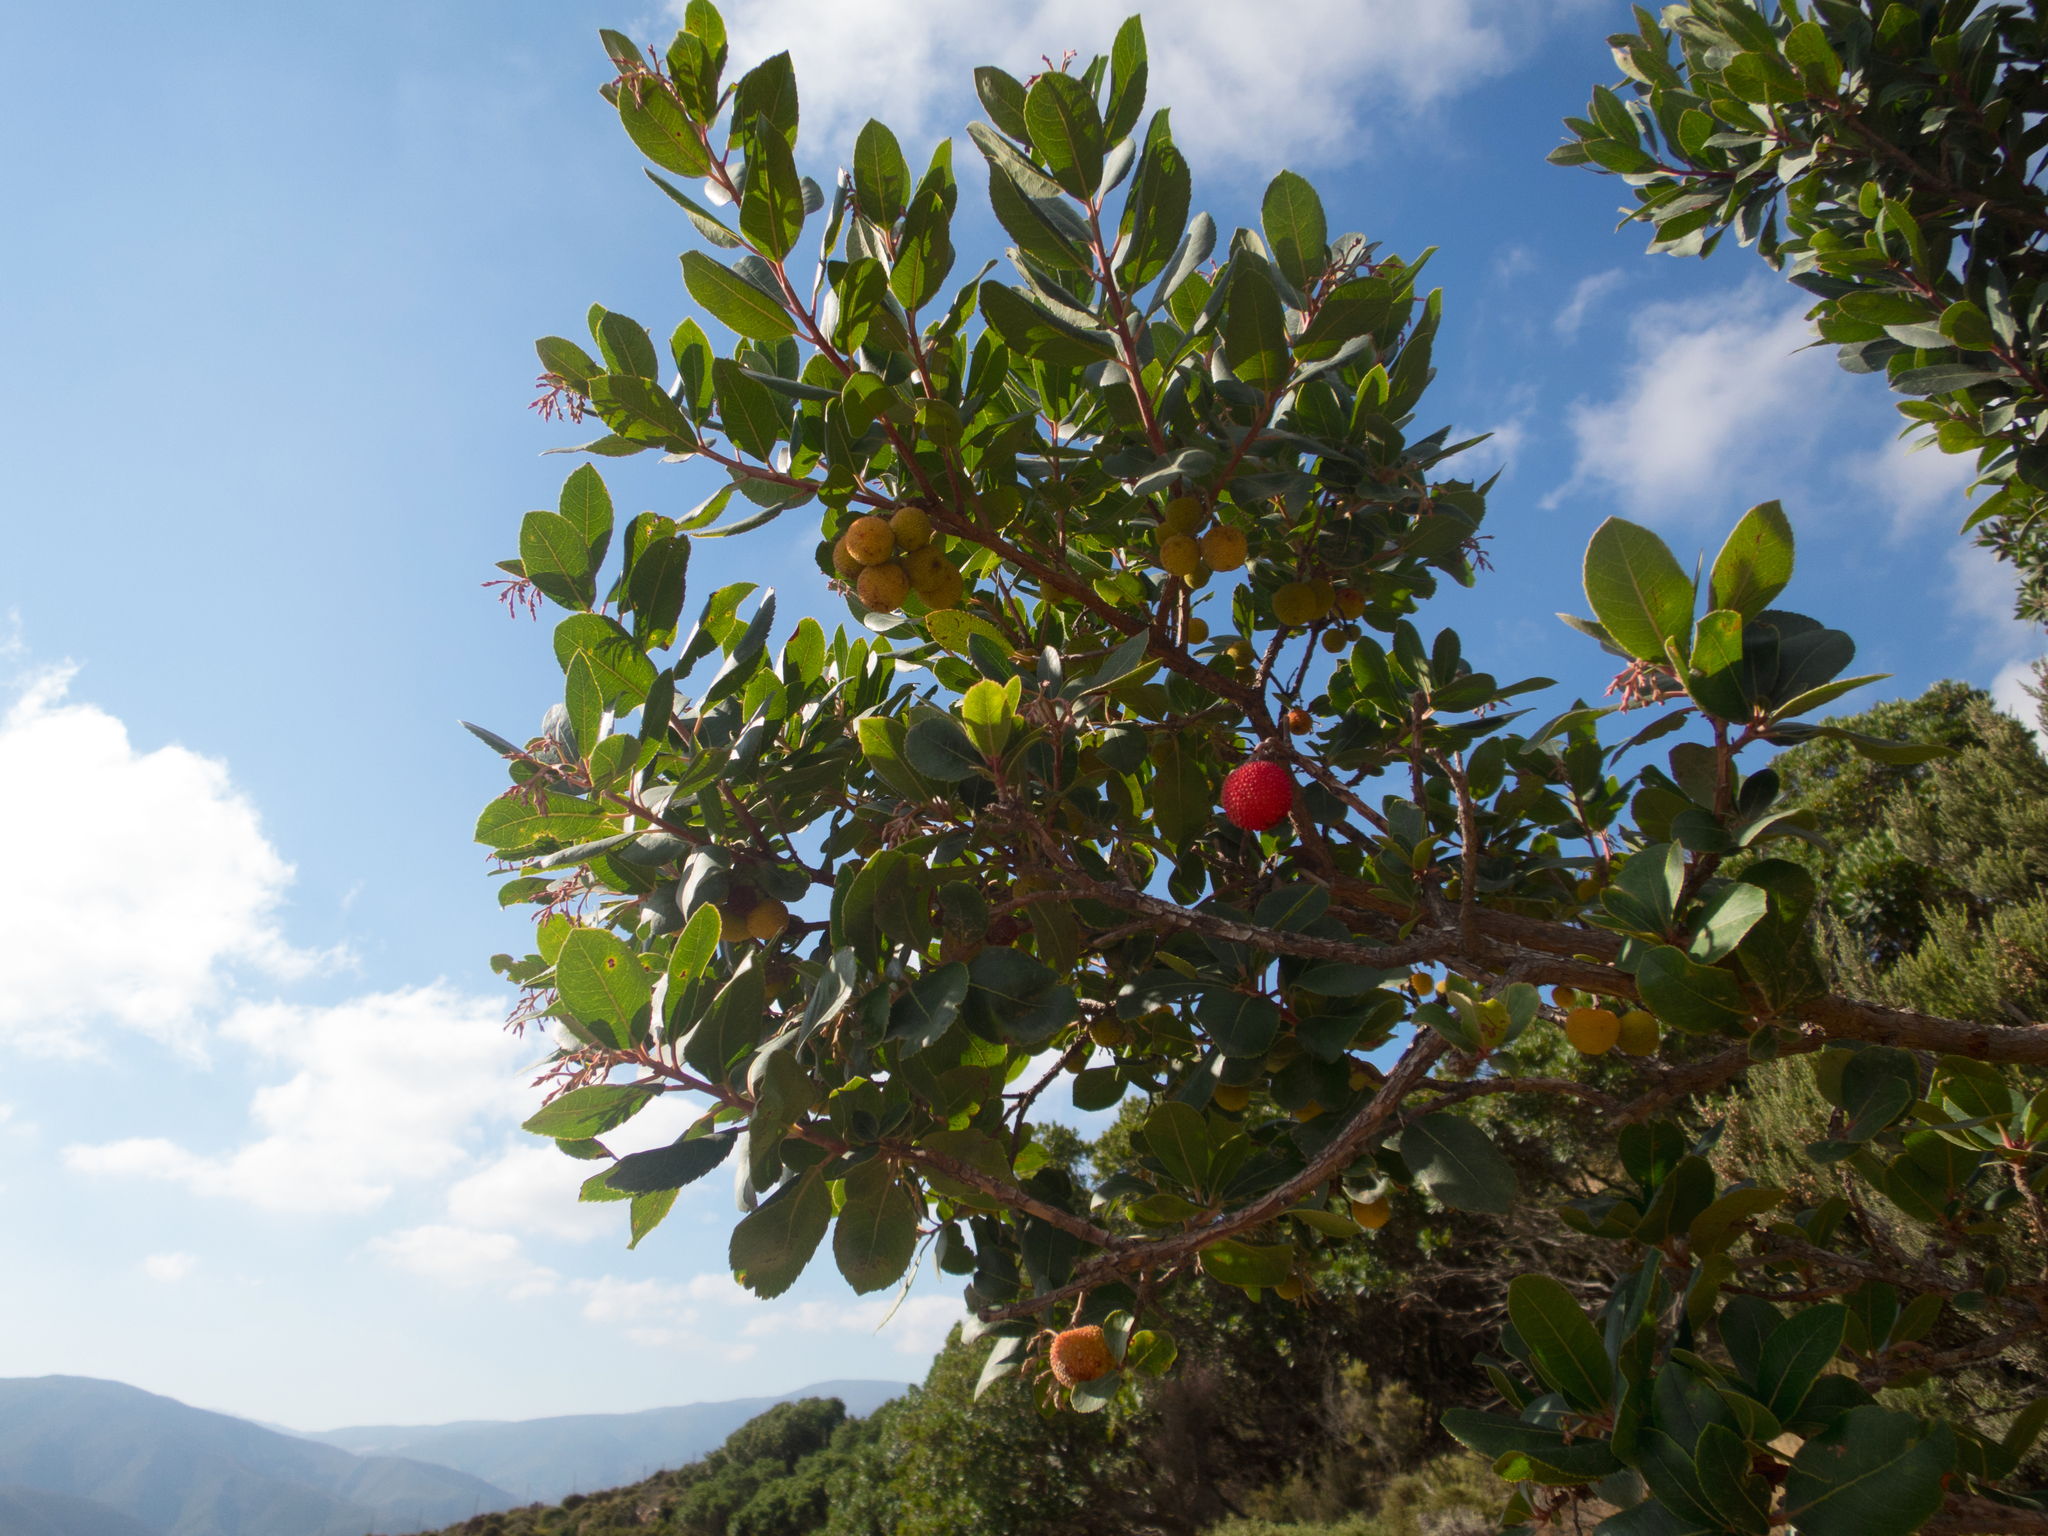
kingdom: Plantae
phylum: Tracheophyta
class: Magnoliopsida
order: Ericales
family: Ericaceae
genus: Arbutus
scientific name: Arbutus unedo
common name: Strawberry-tree
